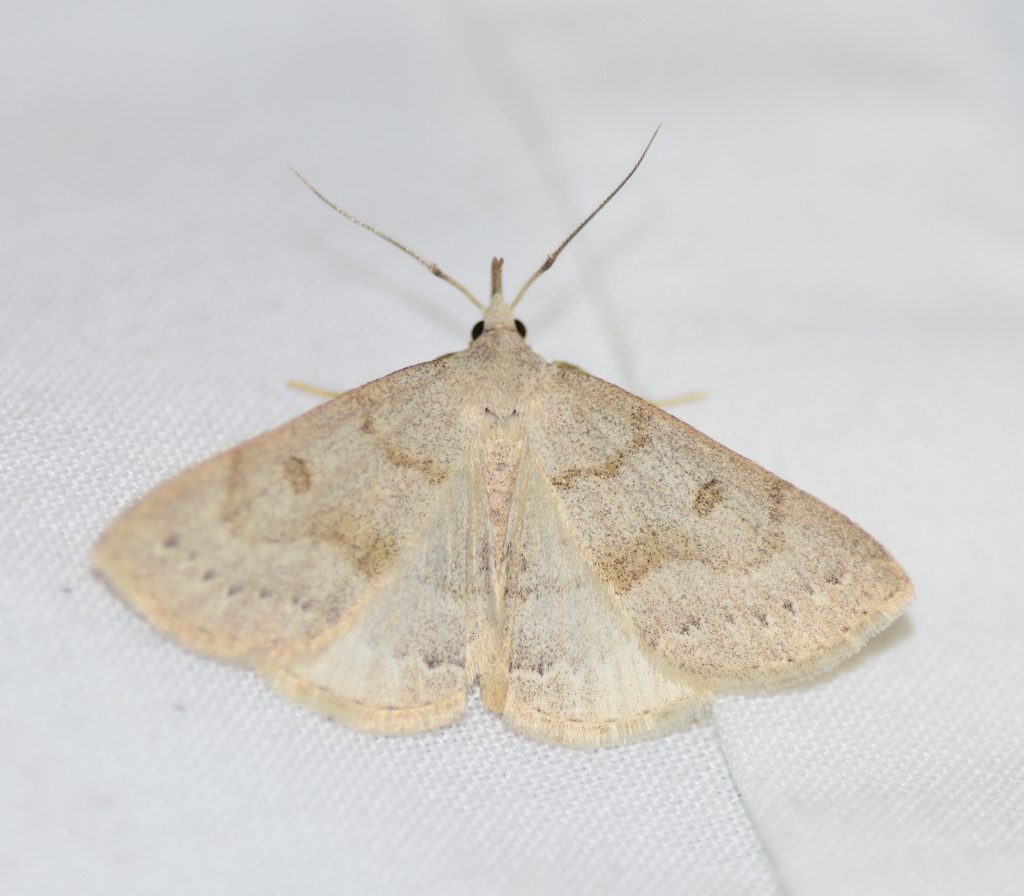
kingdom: Animalia
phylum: Arthropoda
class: Insecta
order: Lepidoptera
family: Erebidae
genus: Macrochilo
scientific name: Macrochilo morbidalis
